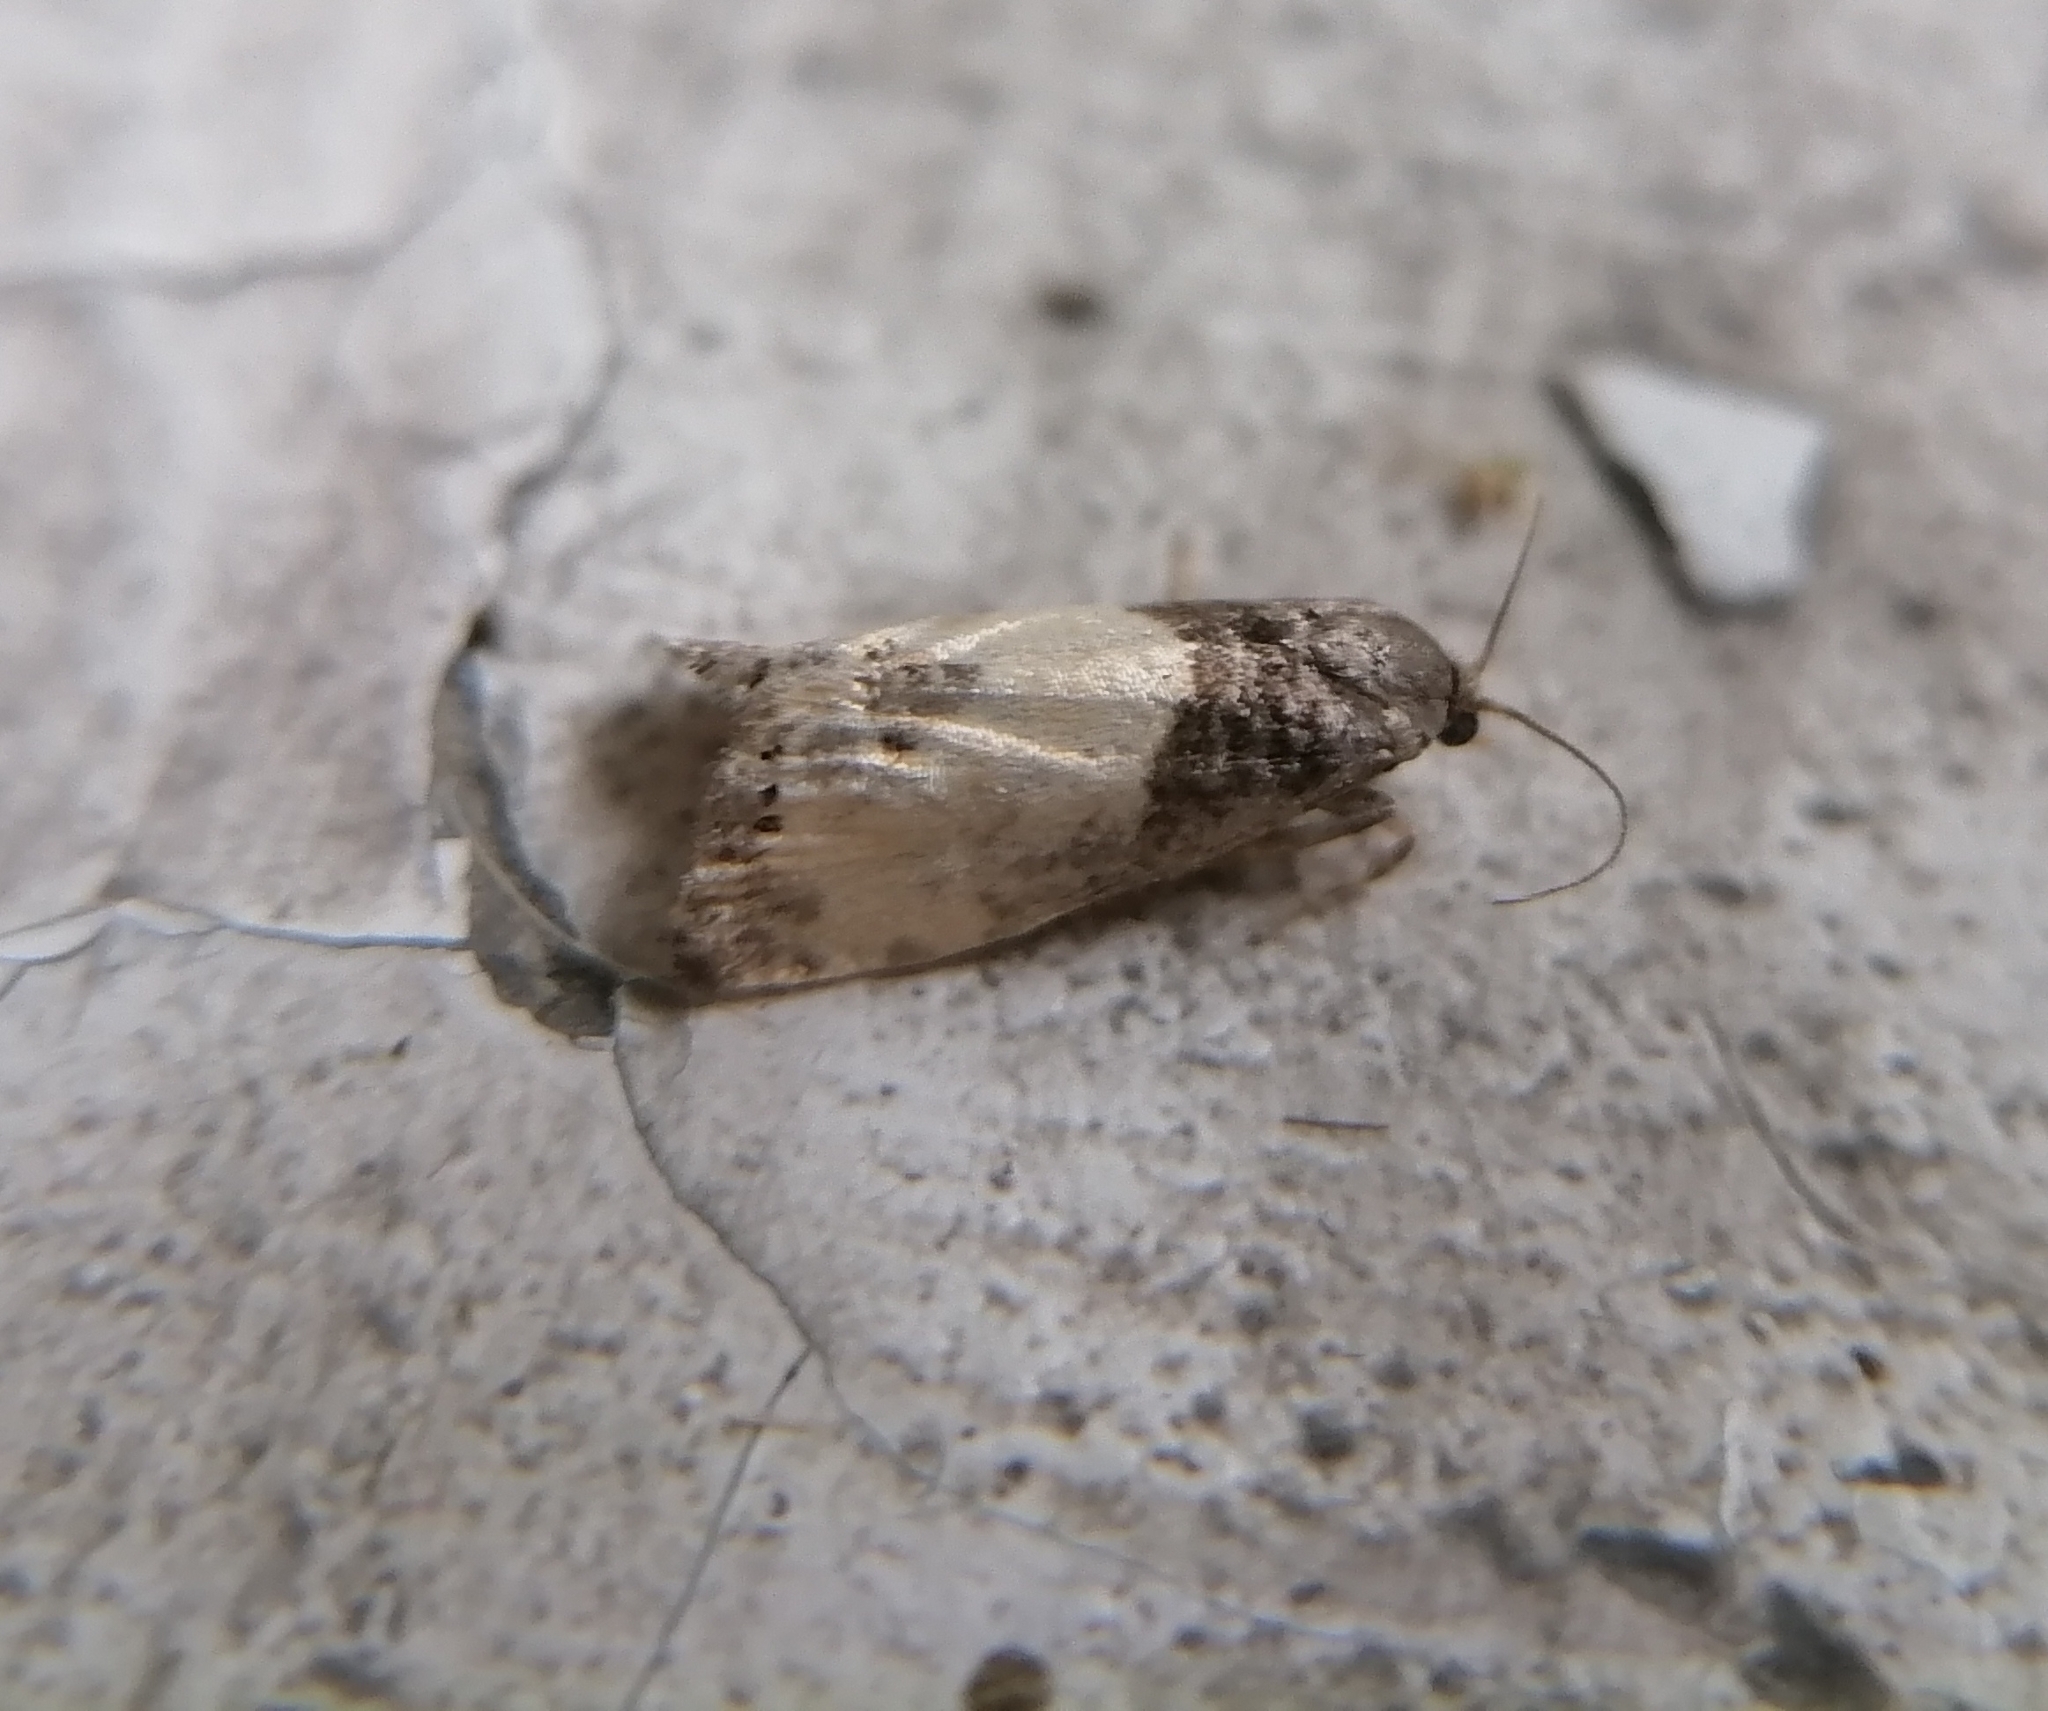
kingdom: Animalia
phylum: Arthropoda
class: Insecta
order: Lepidoptera
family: Tortricidae
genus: Notocelia
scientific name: Notocelia cynosbatella
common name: Yellow-faced bell moth
